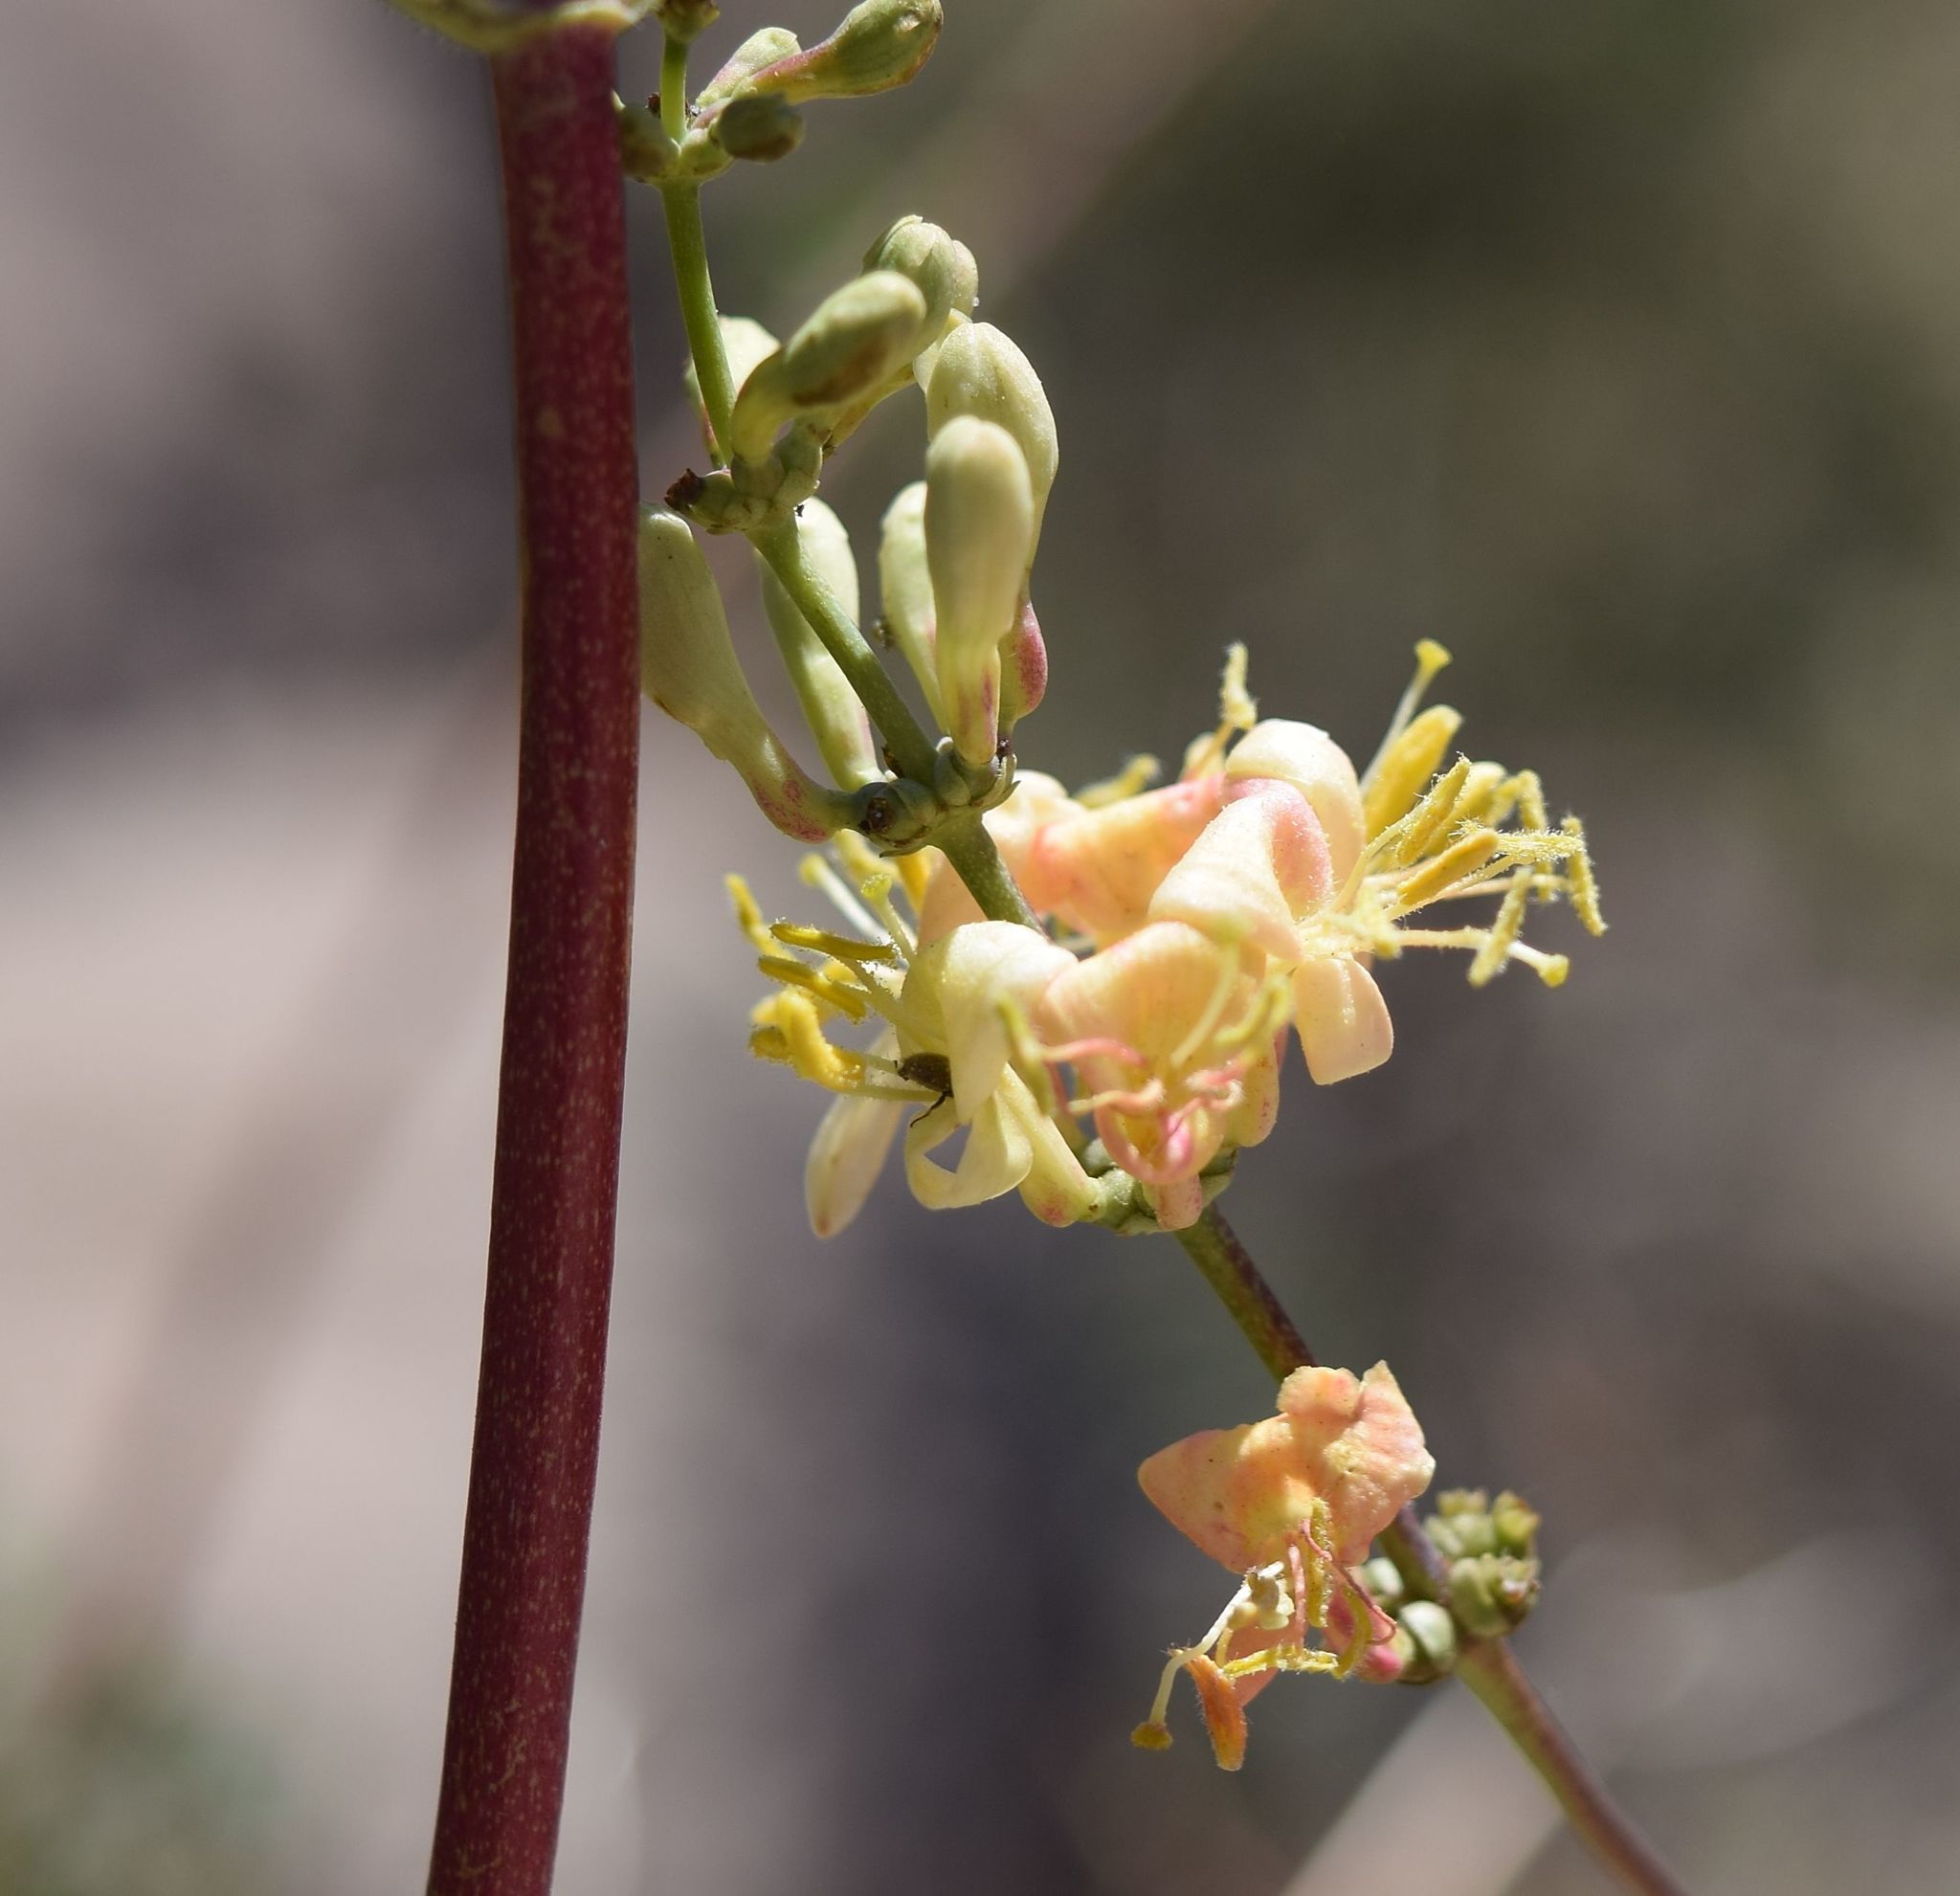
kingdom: Plantae
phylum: Tracheophyta
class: Magnoliopsida
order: Dipsacales
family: Caprifoliaceae
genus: Lonicera
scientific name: Lonicera interrupta
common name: Chaparral honeysuckle
